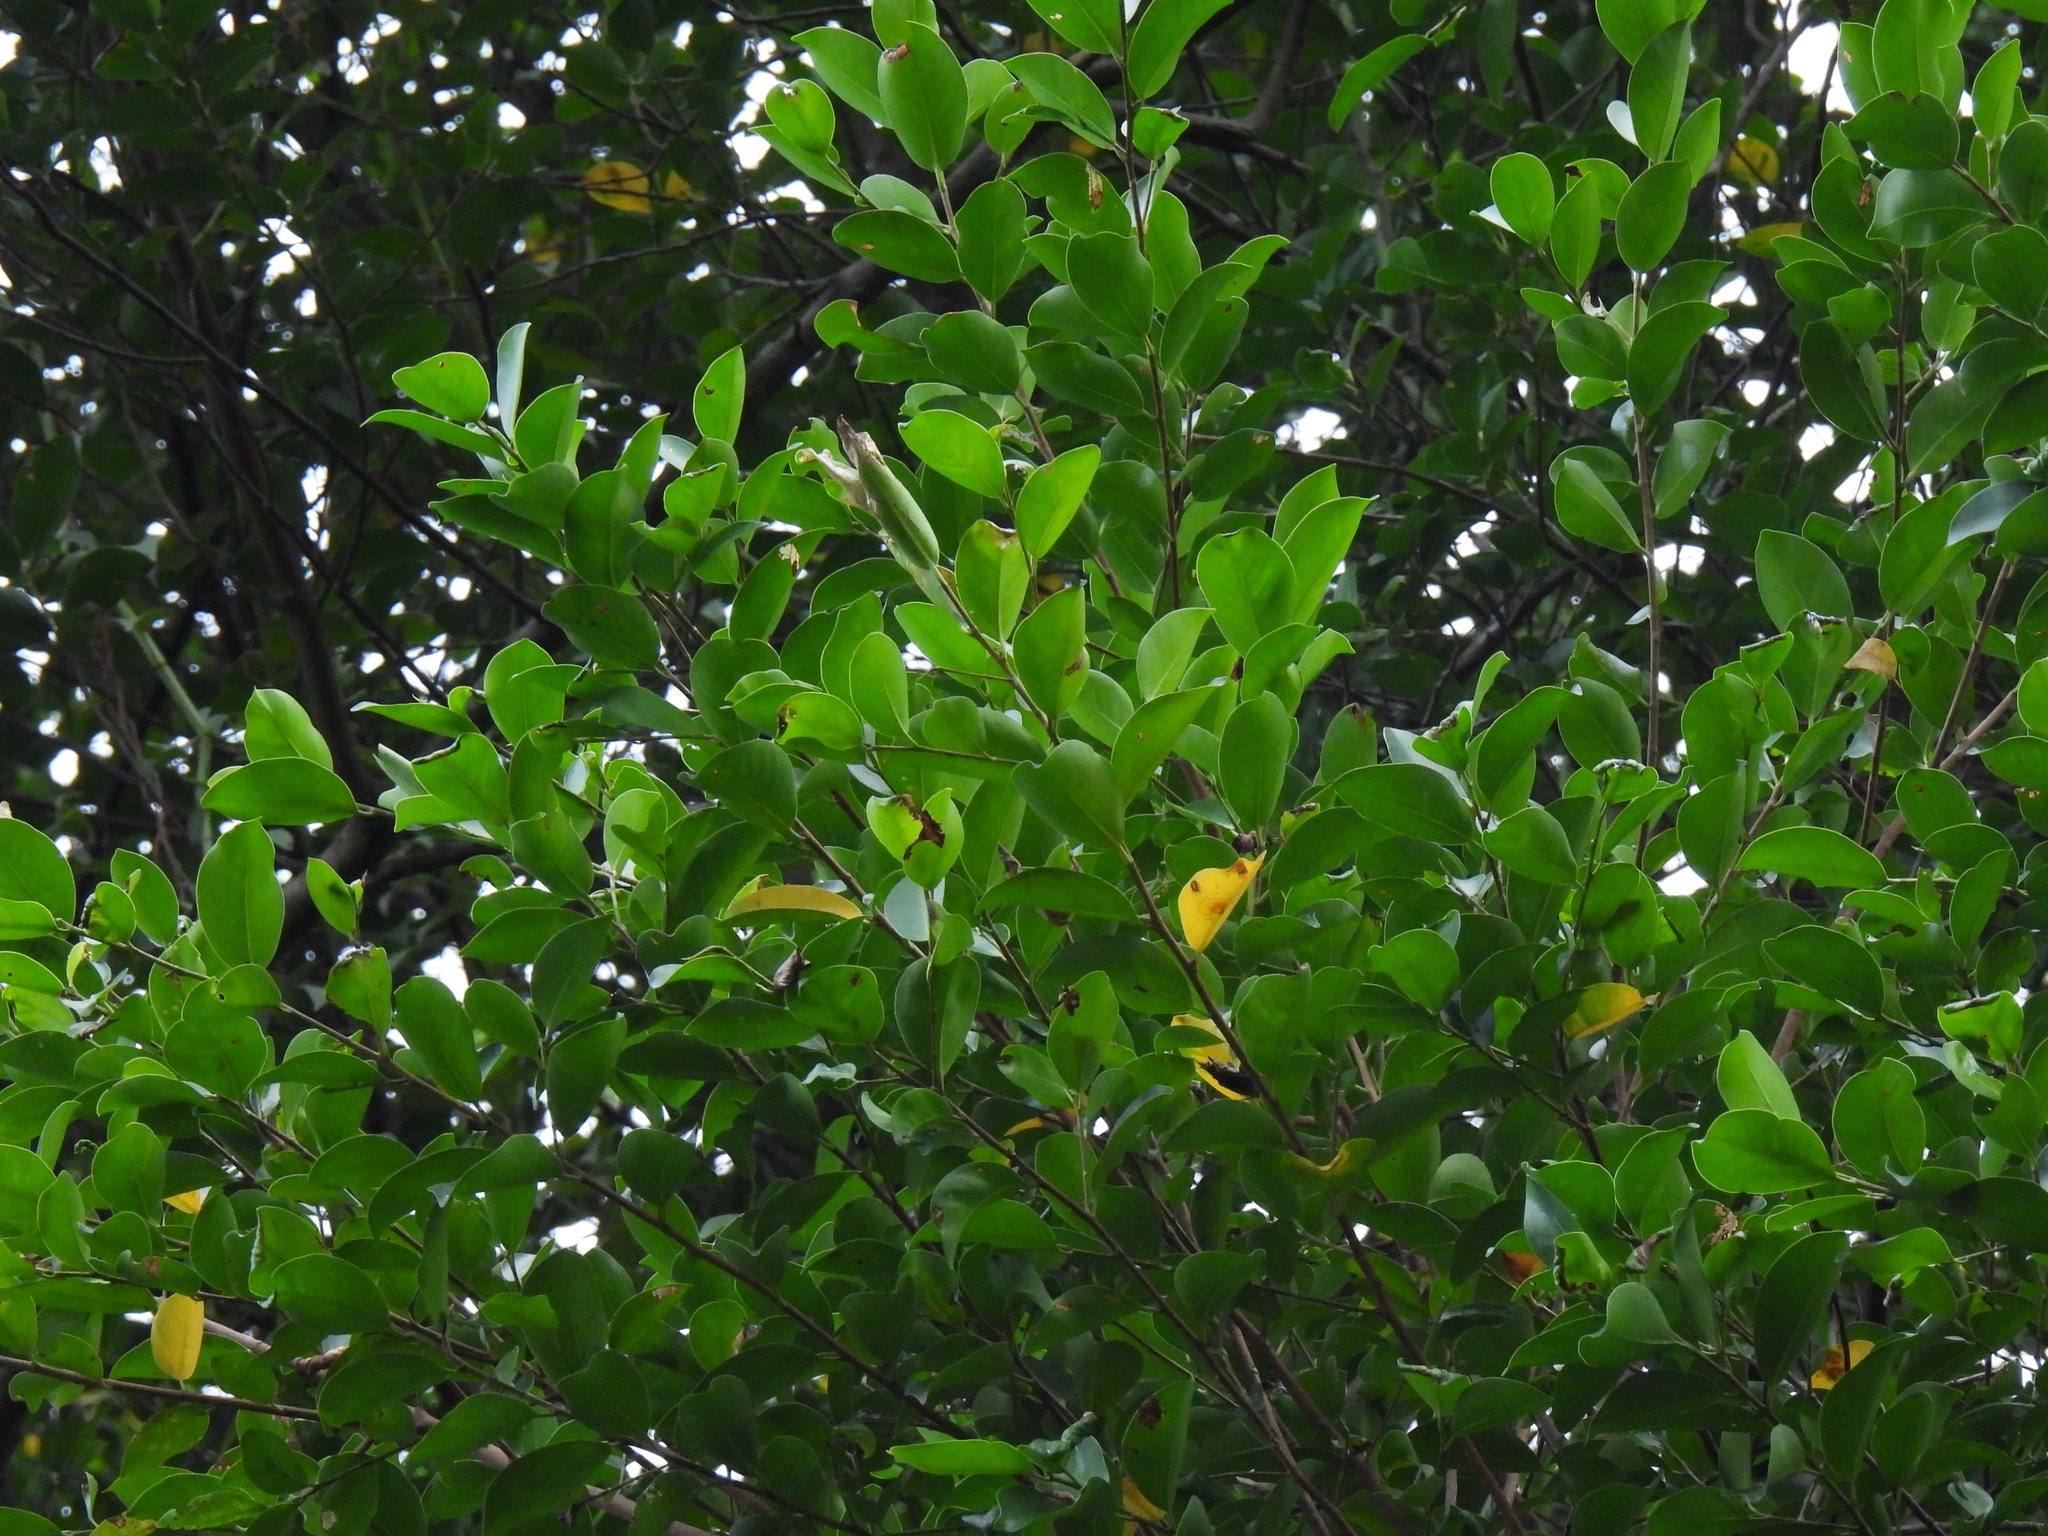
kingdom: Plantae
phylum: Tracheophyta
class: Magnoliopsida
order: Rosales
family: Moraceae
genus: Ficus
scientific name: Ficus microcarpa
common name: Chinese banyan
